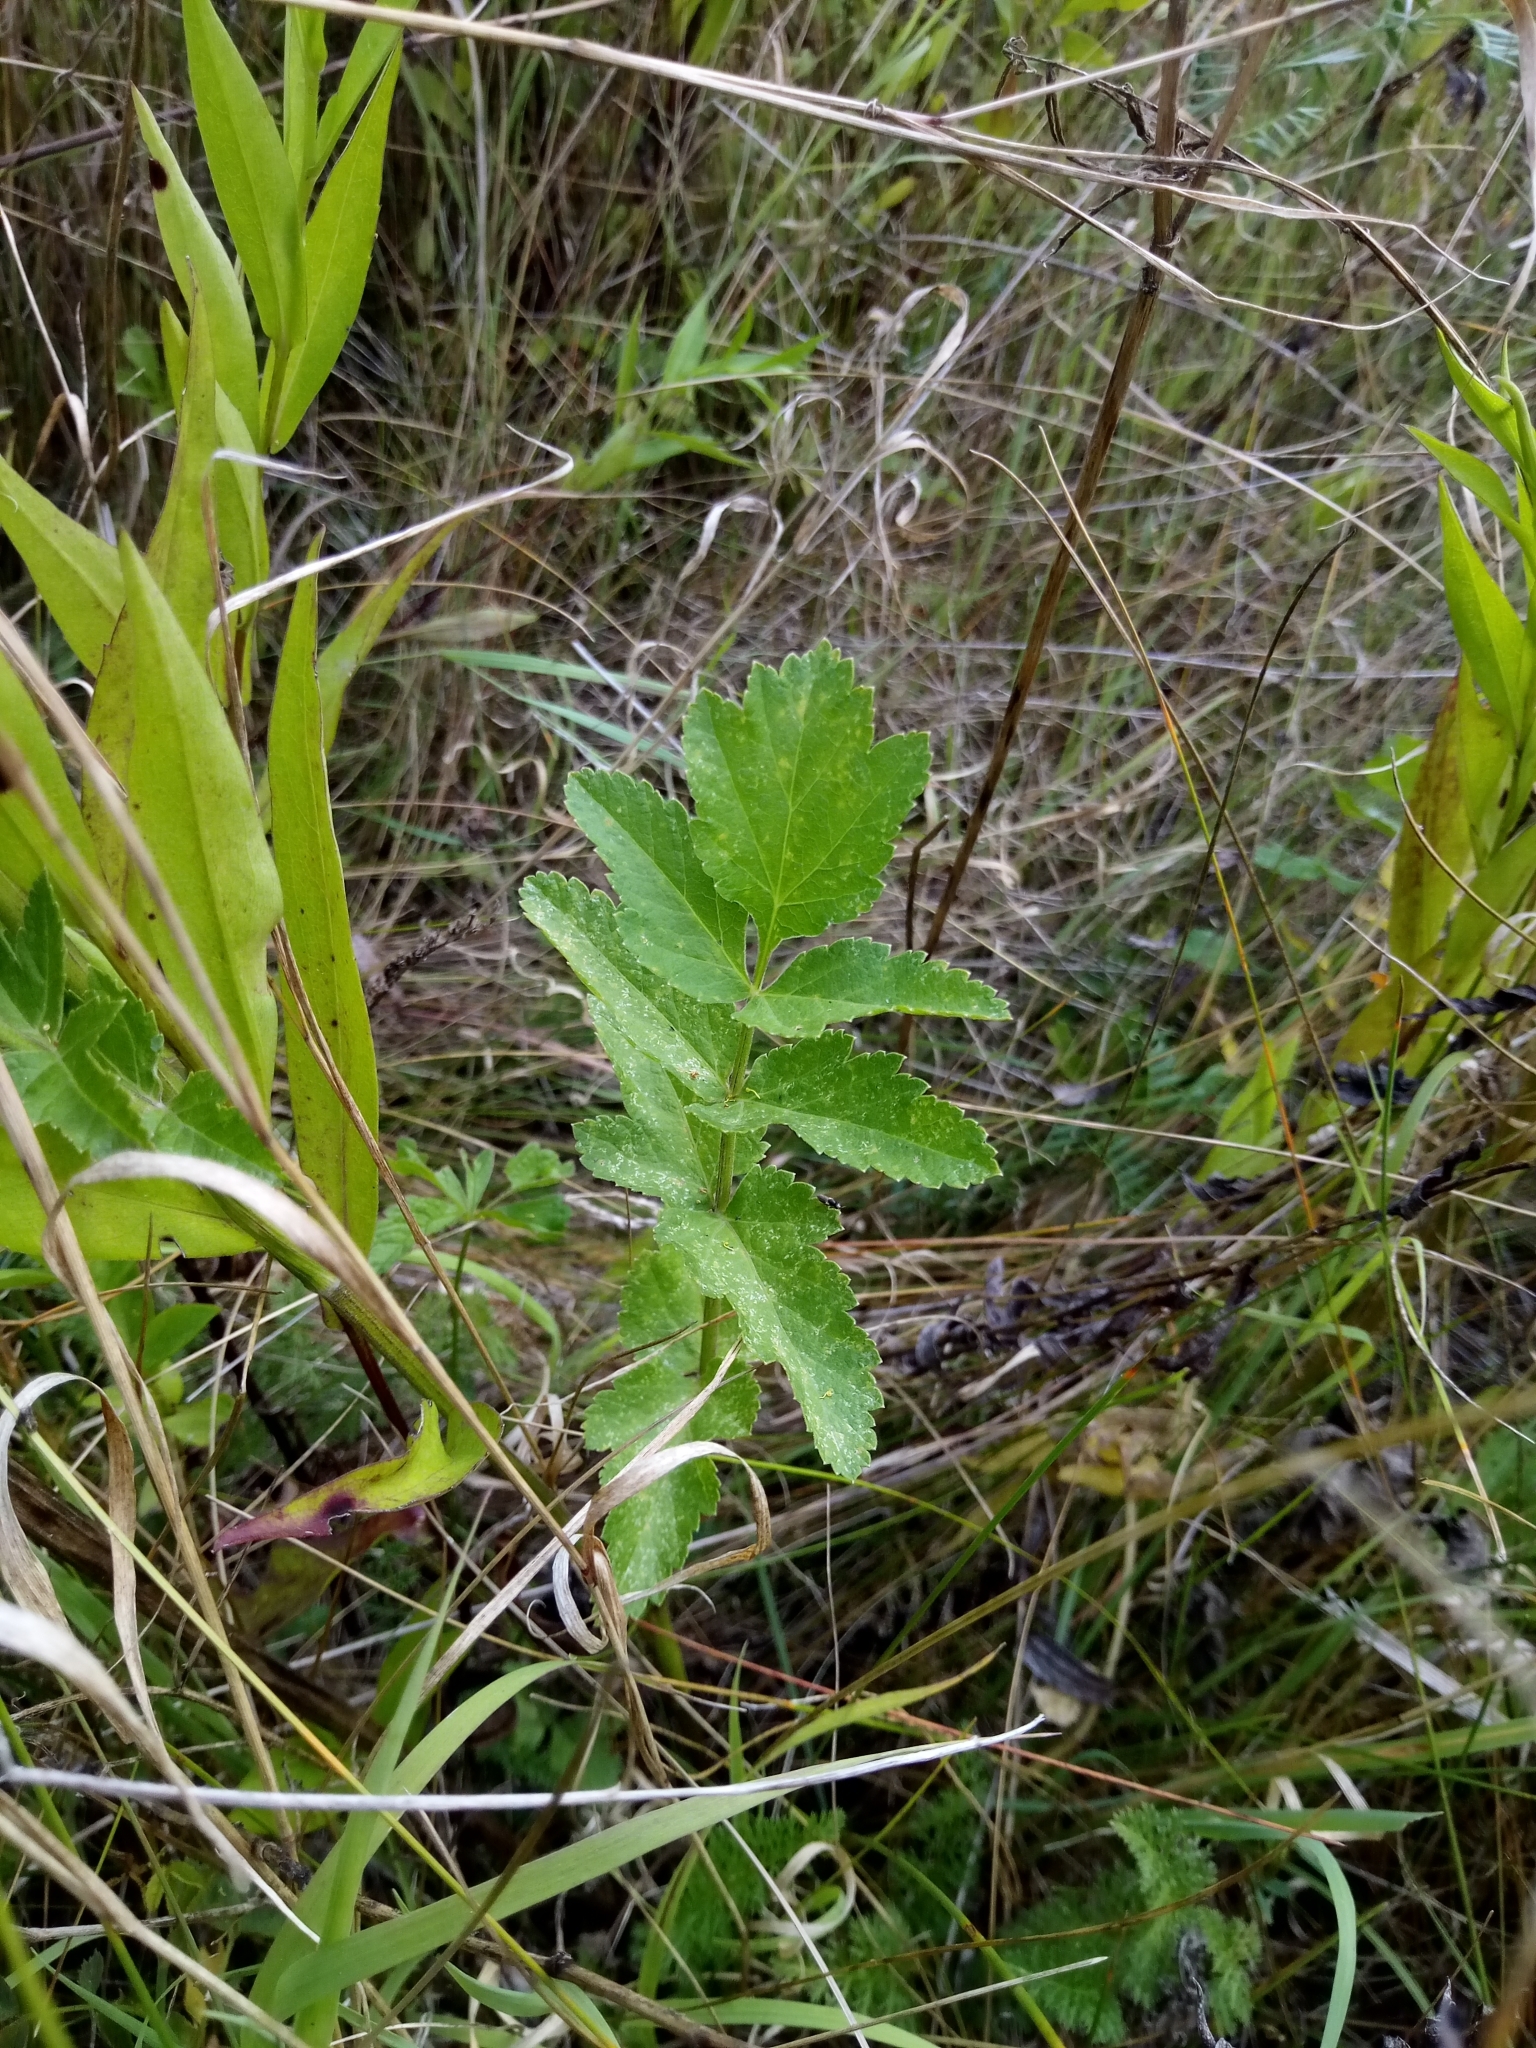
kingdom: Plantae
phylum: Tracheophyta
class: Magnoliopsida
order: Apiales
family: Apiaceae
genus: Pastinaca
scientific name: Pastinaca sativa
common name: Wild parsnip
